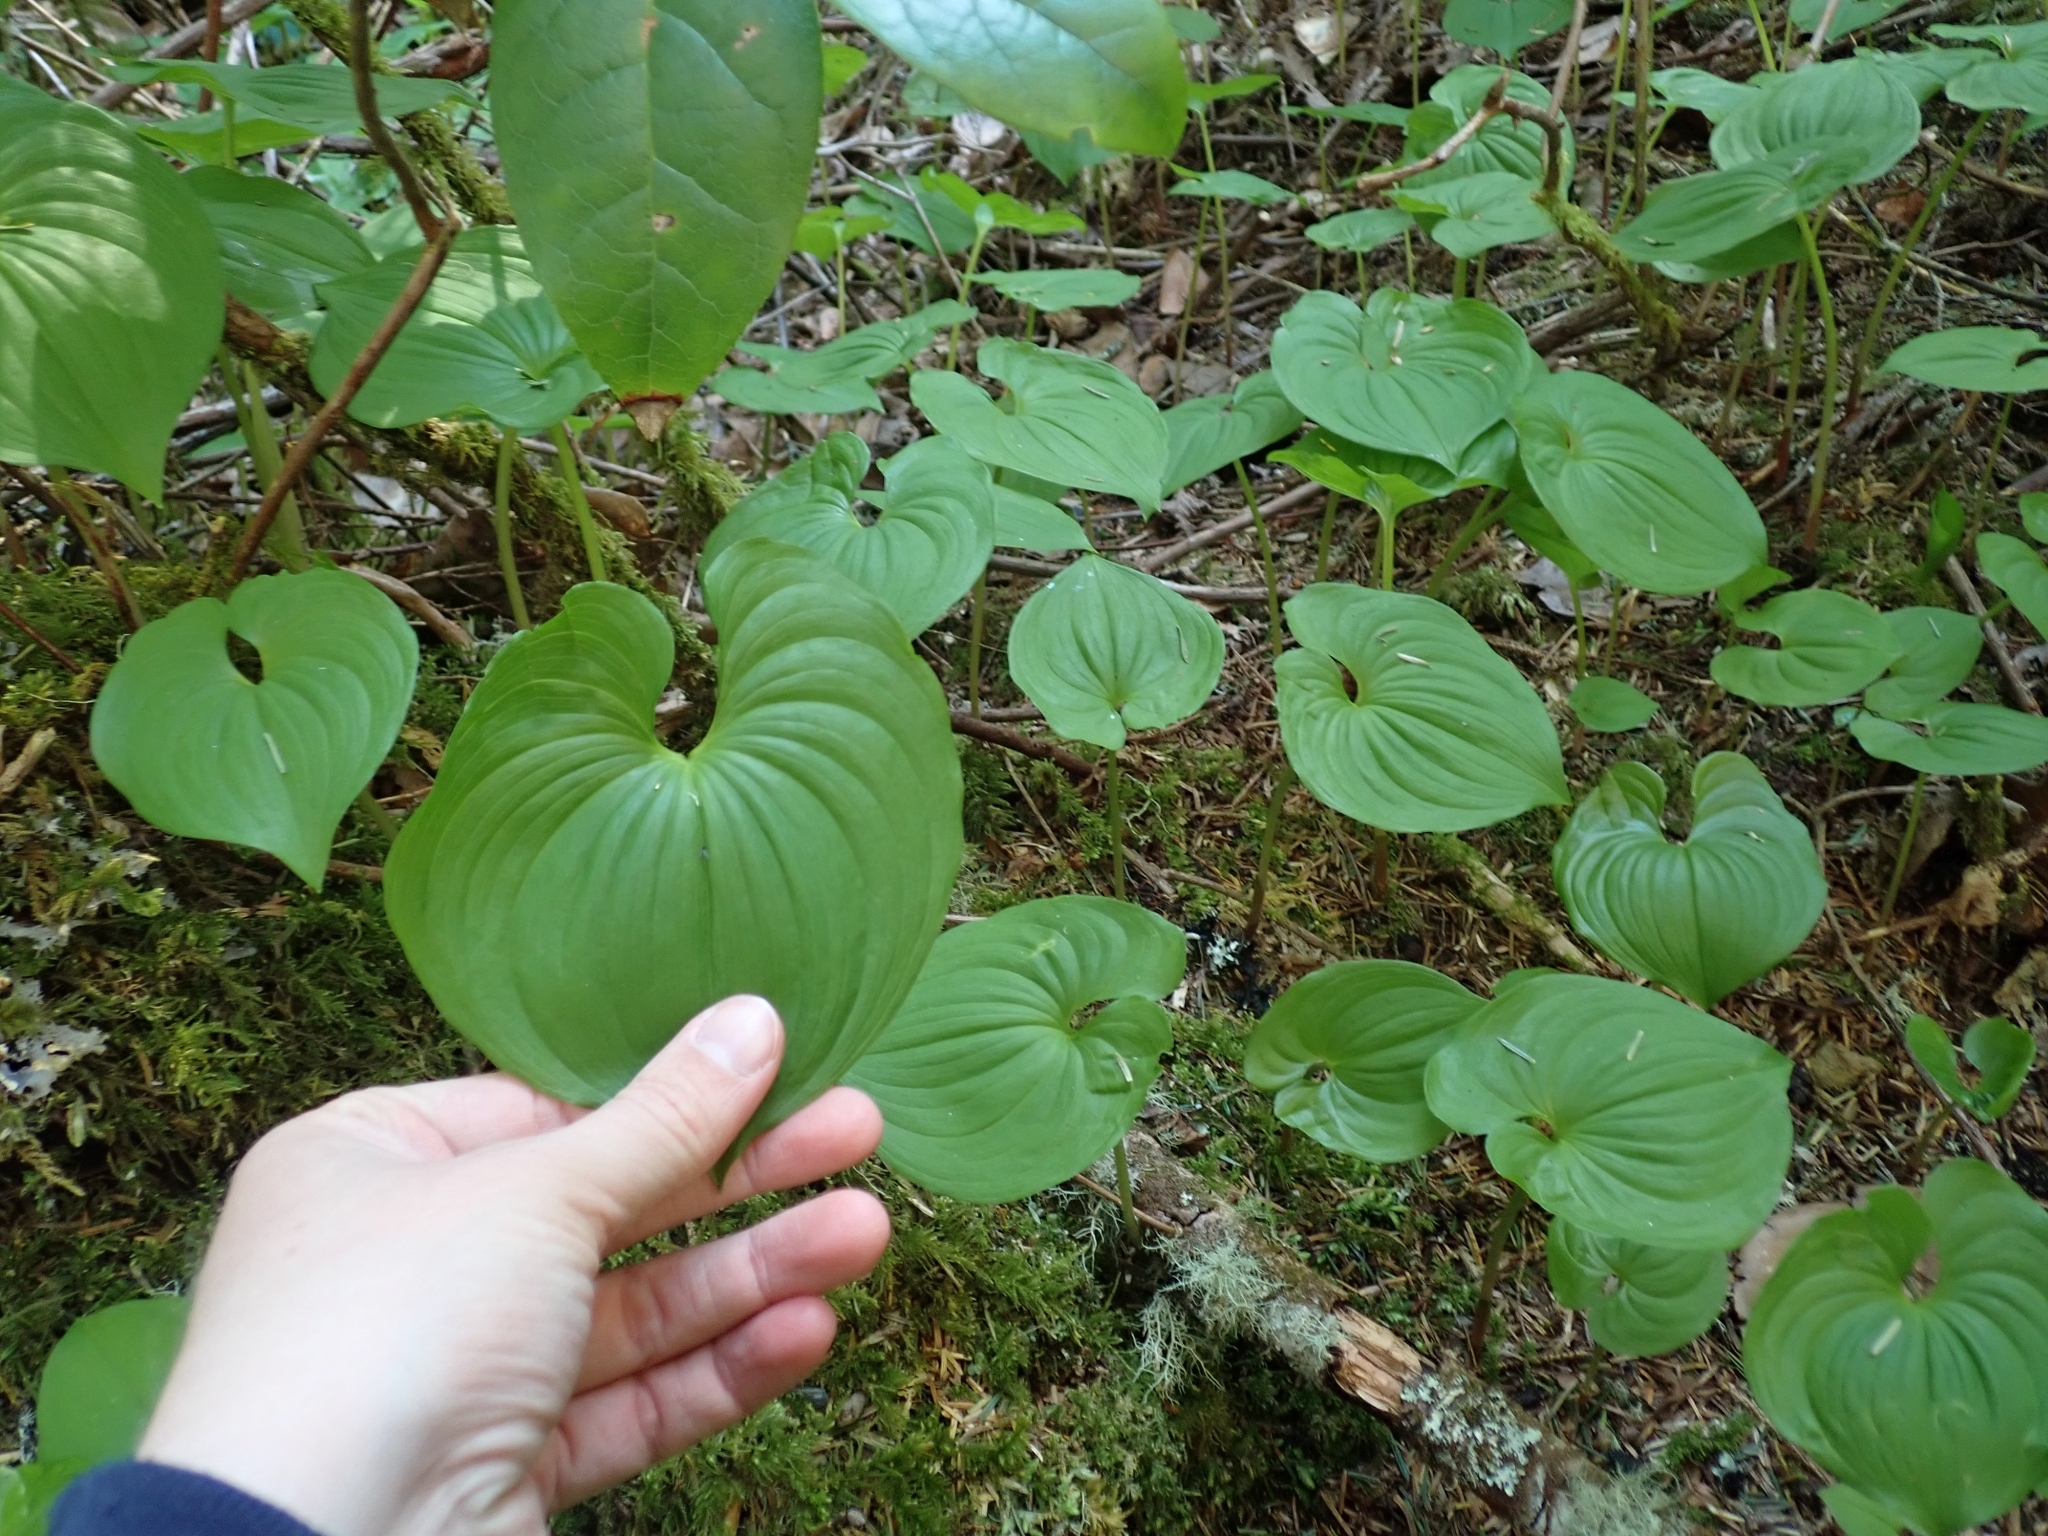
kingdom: Plantae
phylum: Tracheophyta
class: Liliopsida
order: Asparagales
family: Asparagaceae
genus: Maianthemum
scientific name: Maianthemum dilatatum
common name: False lily-of-the-valley
